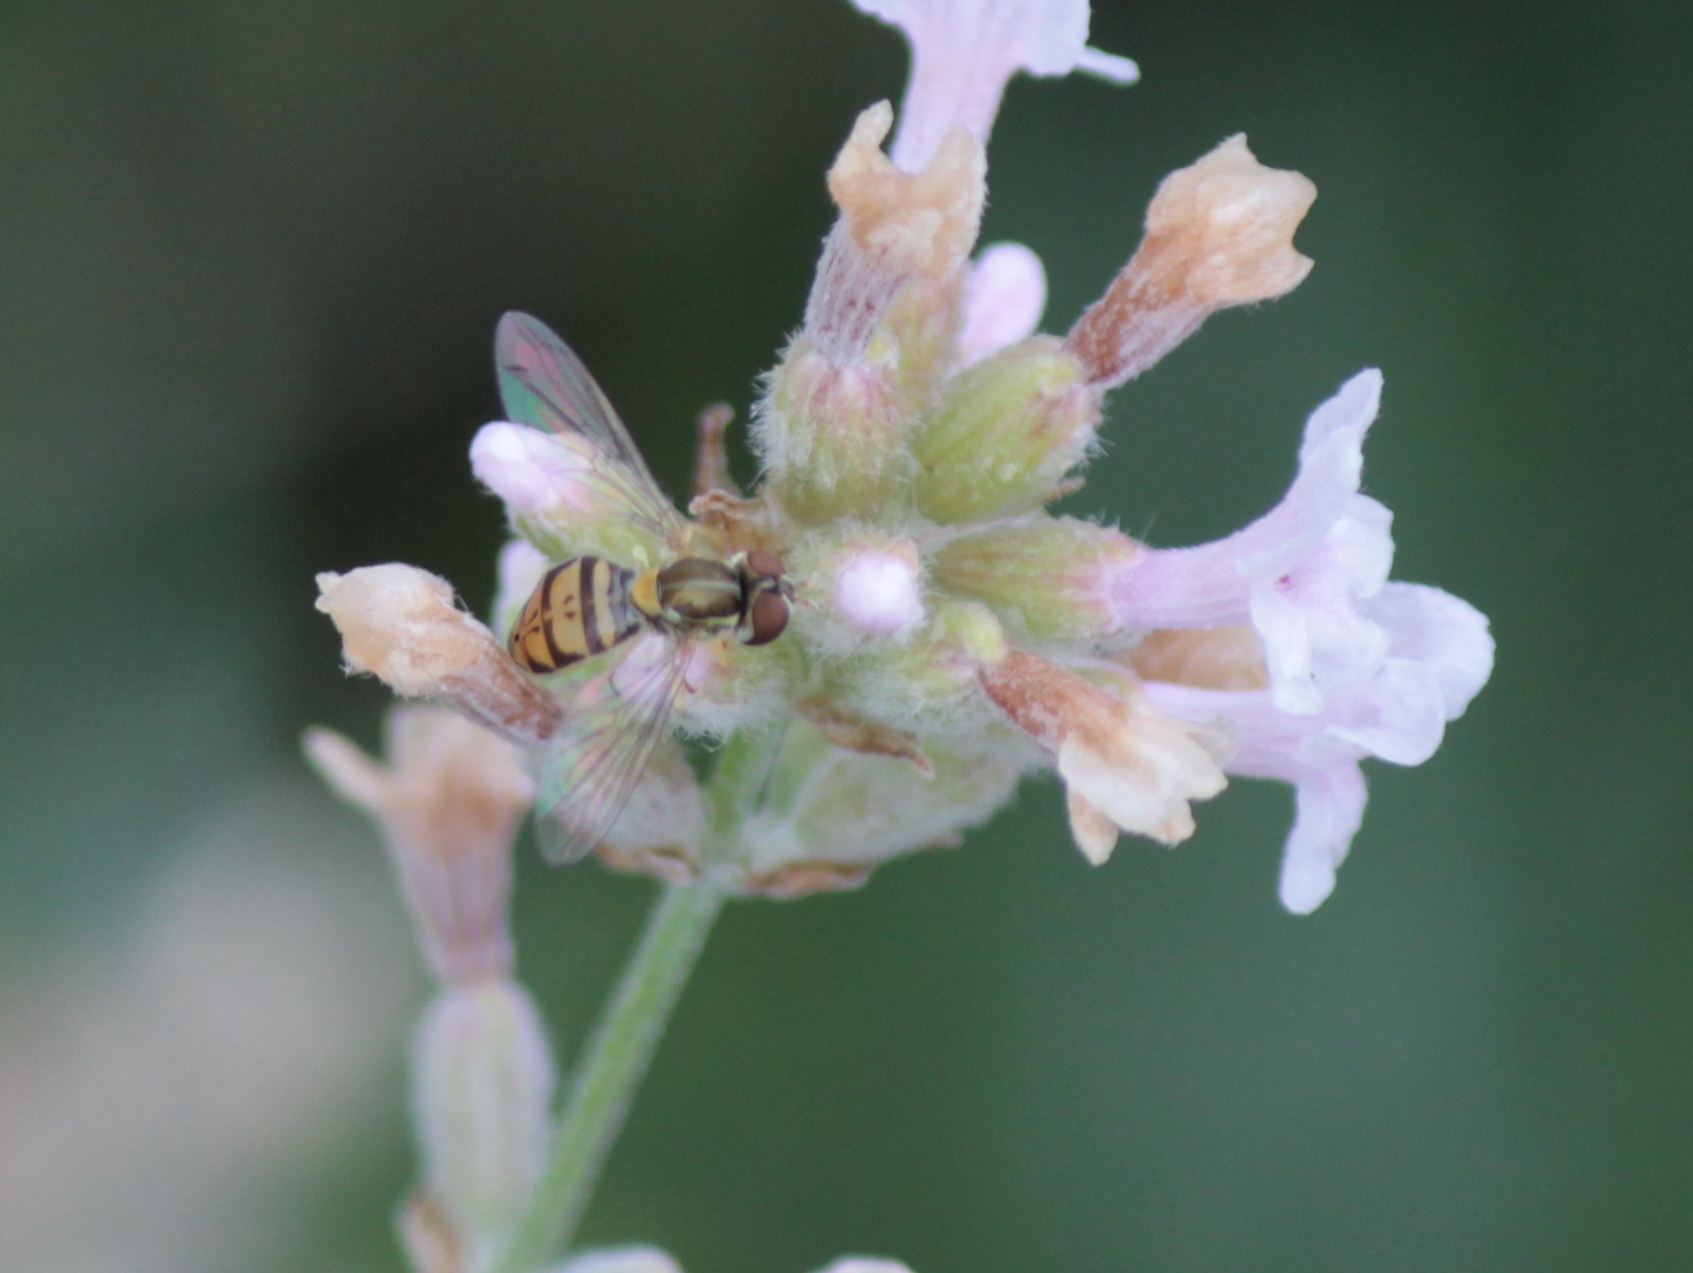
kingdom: Animalia
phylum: Arthropoda
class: Insecta
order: Diptera
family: Syrphidae
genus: Toxomerus
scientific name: Toxomerus marginatus
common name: Syrphid fly
